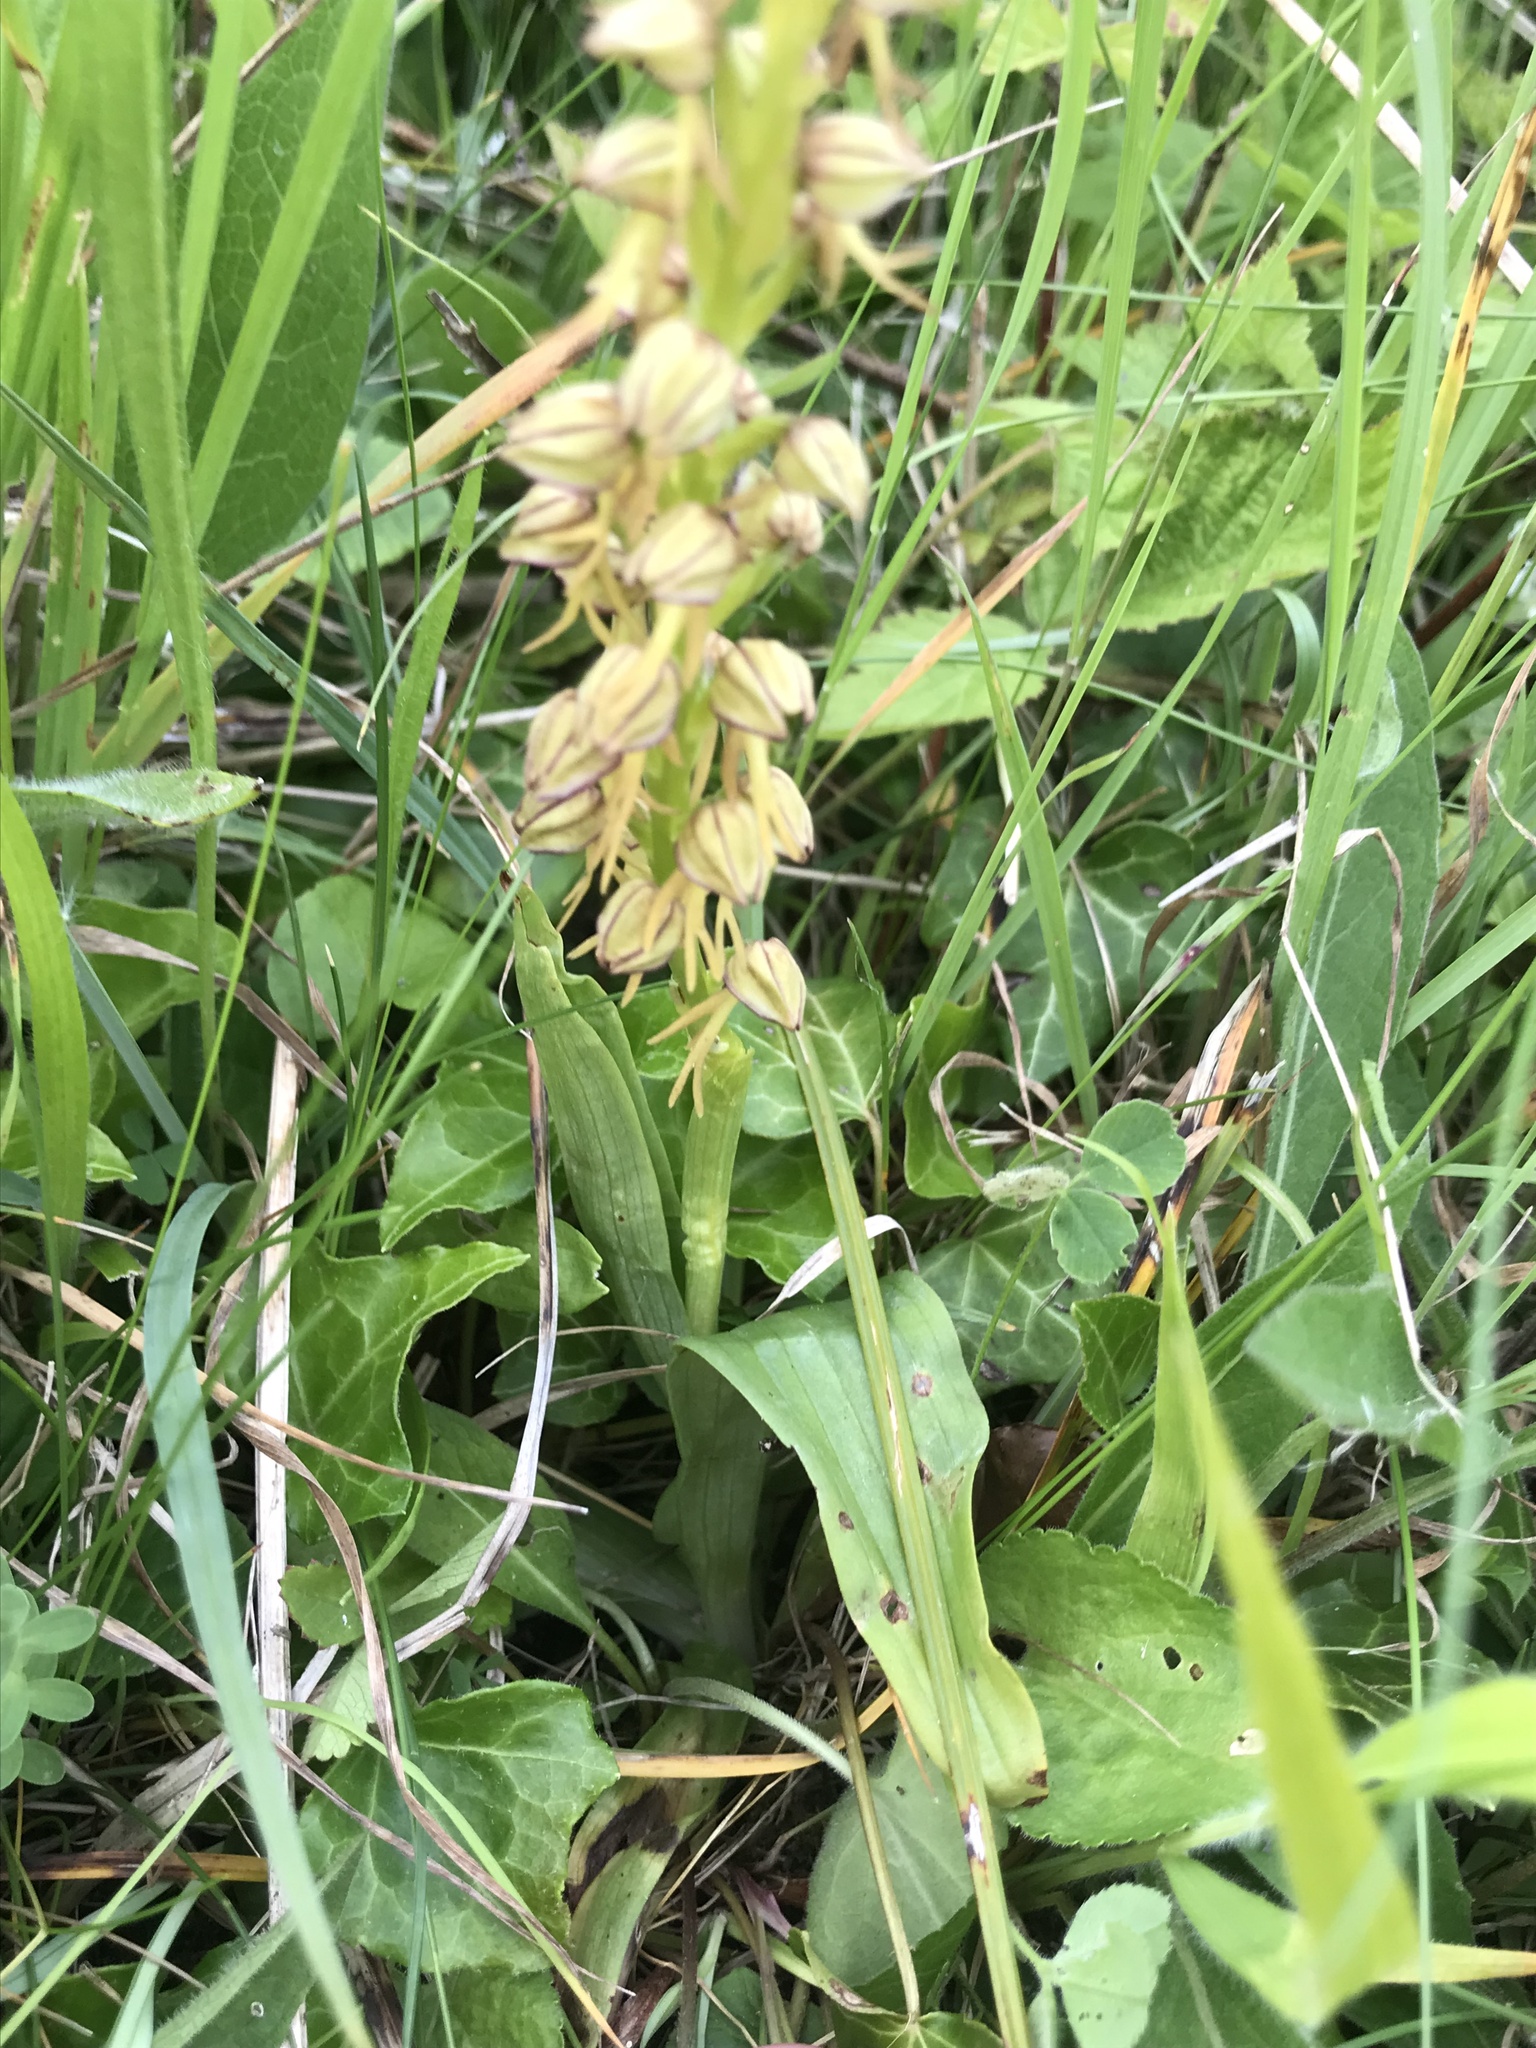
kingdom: Plantae
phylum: Tracheophyta
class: Liliopsida
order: Asparagales
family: Orchidaceae
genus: Orchis
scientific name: Orchis anthropophora
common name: Man orchid
